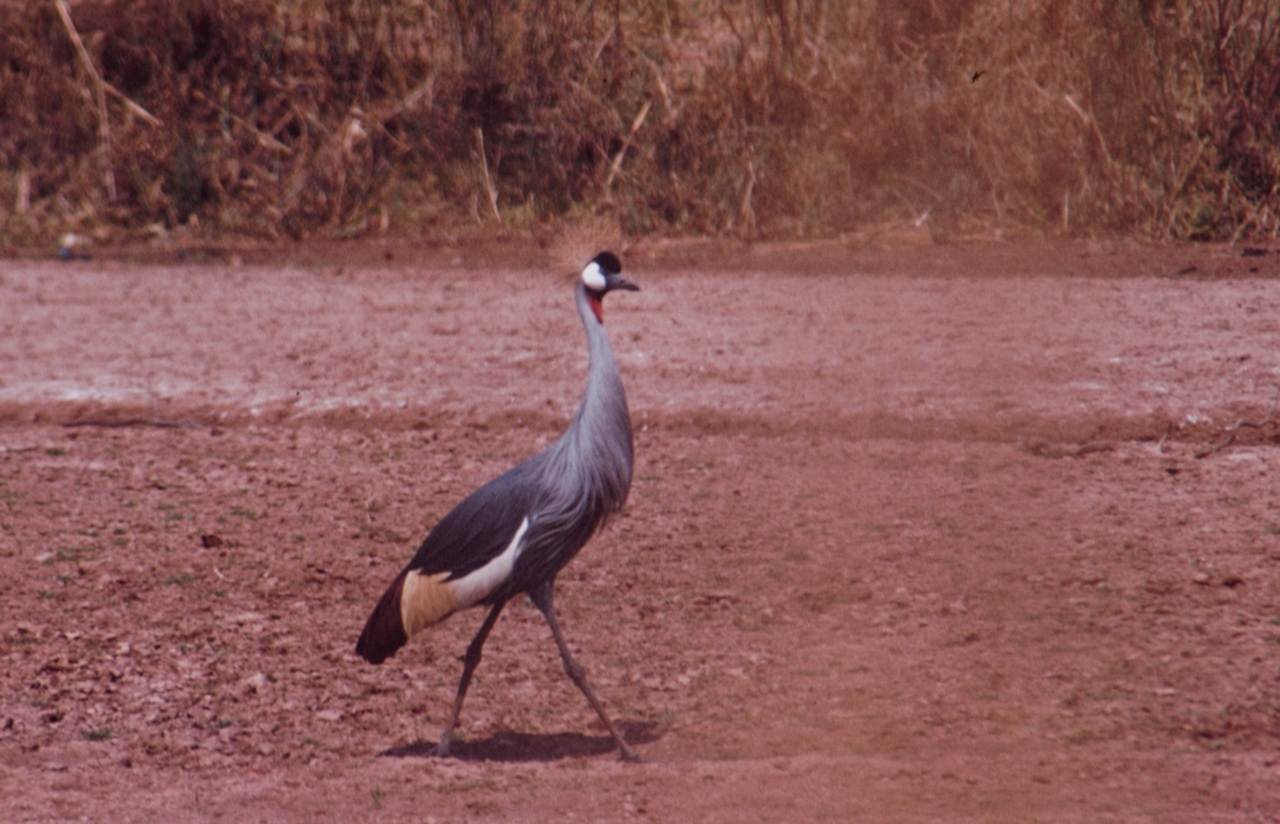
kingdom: Animalia
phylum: Chordata
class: Aves
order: Gruiformes
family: Gruidae
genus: Balearica
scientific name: Balearica regulorum
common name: Grey crowned crane
